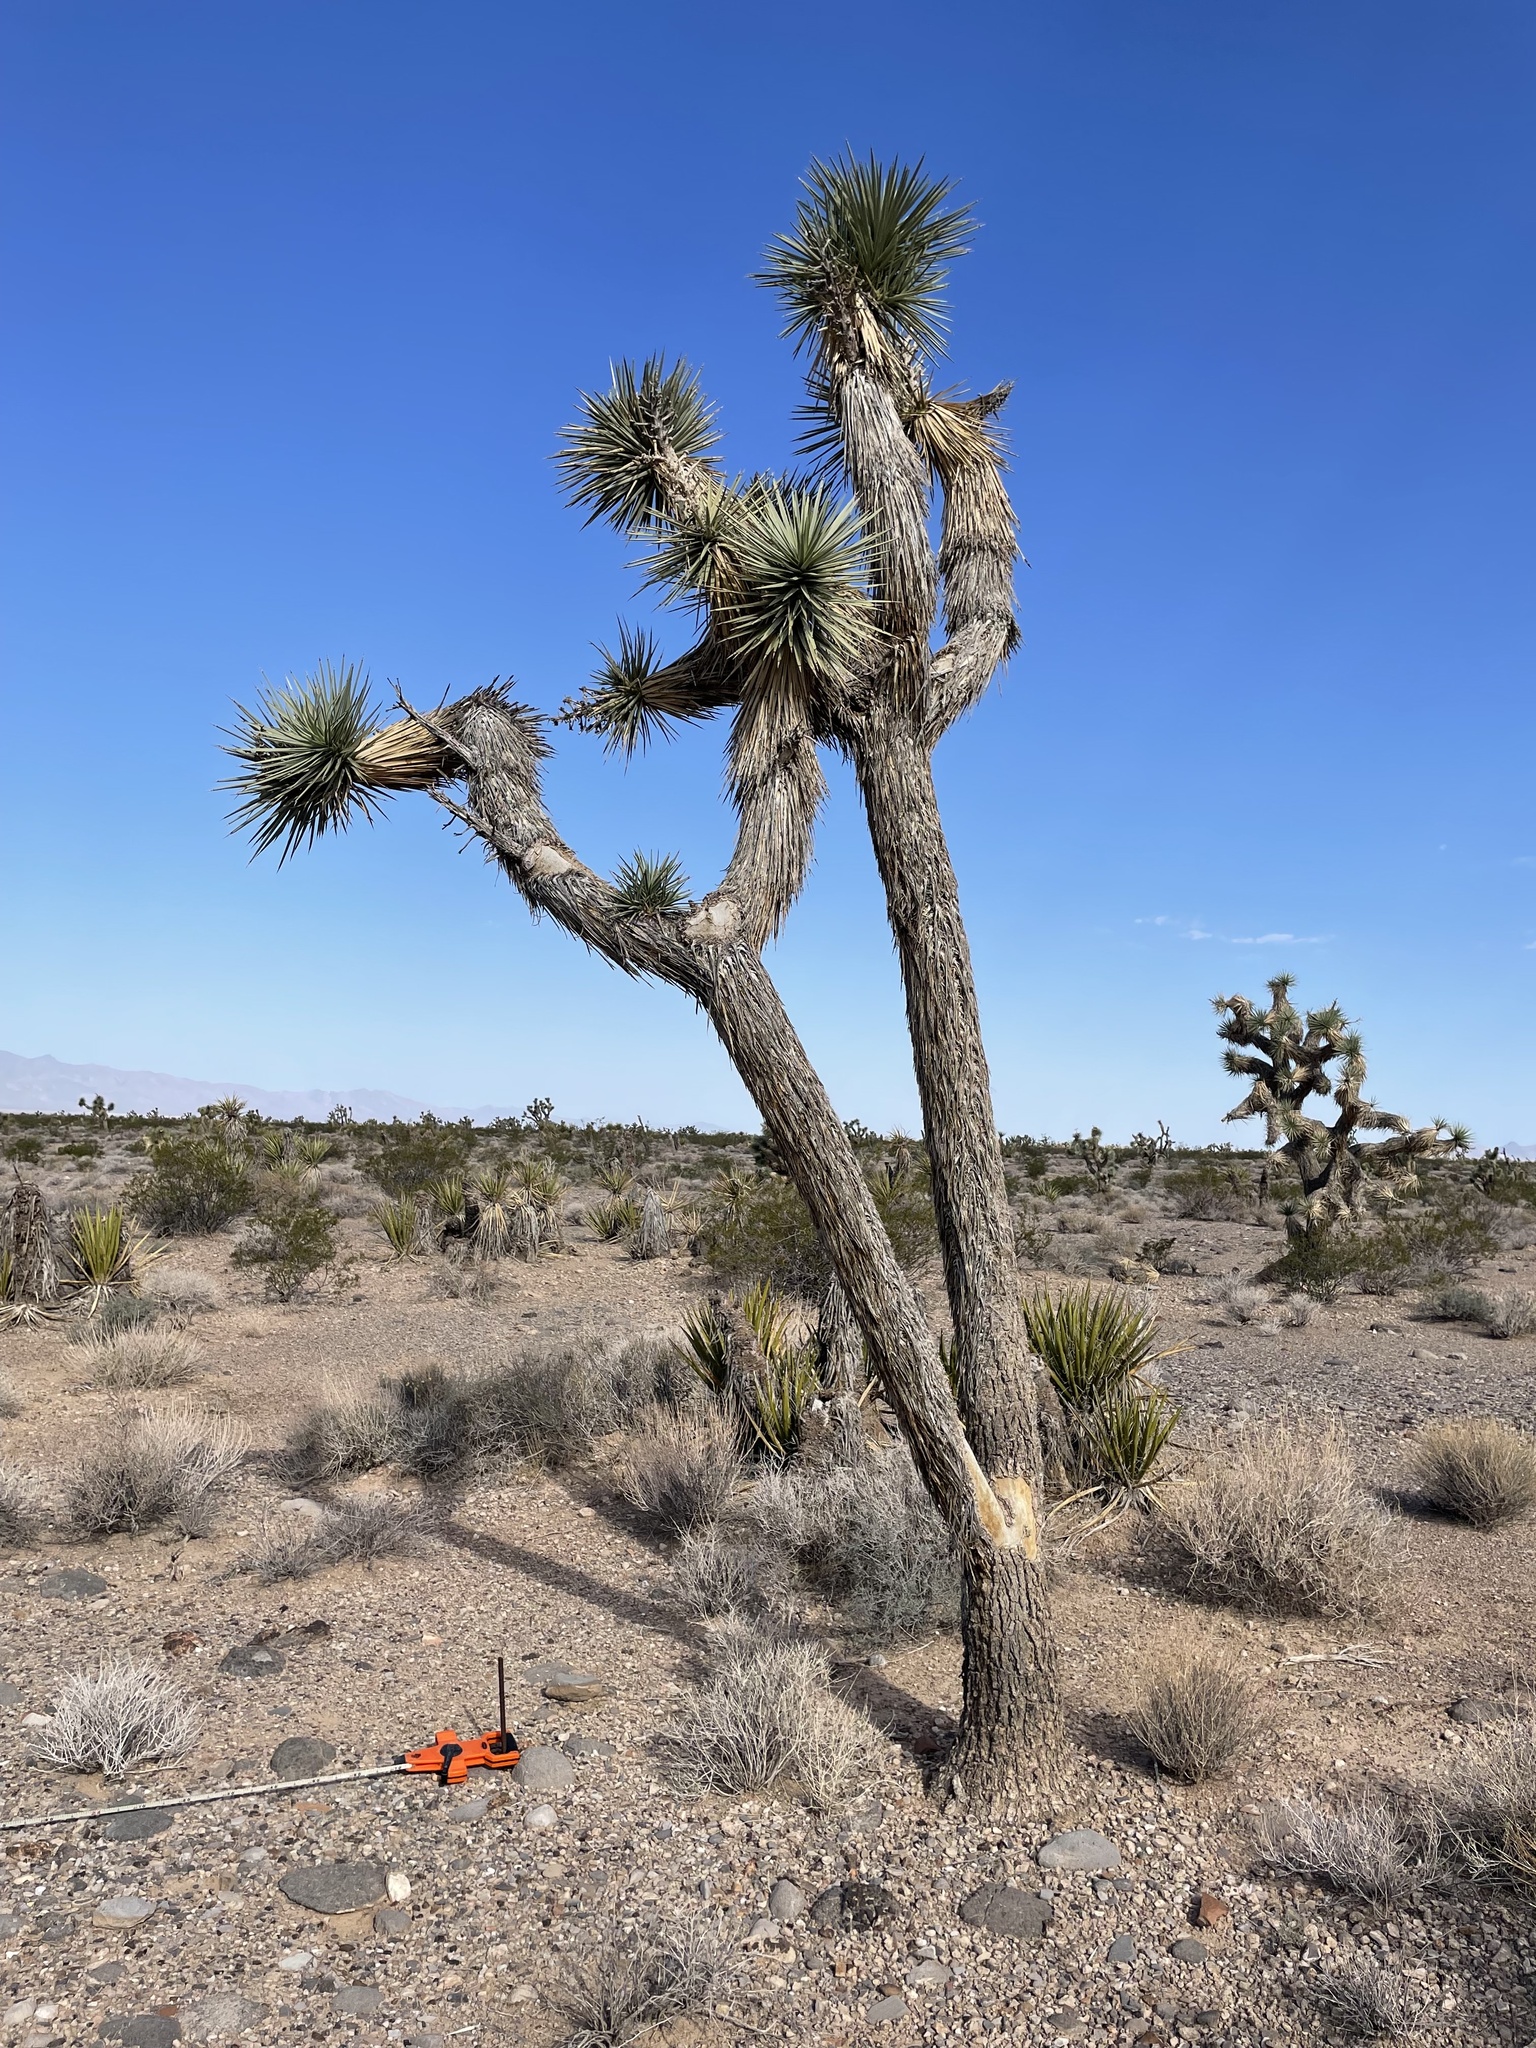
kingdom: Plantae
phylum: Tracheophyta
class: Liliopsida
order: Asparagales
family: Asparagaceae
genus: Yucca
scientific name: Yucca brevifolia
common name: Joshua tree
